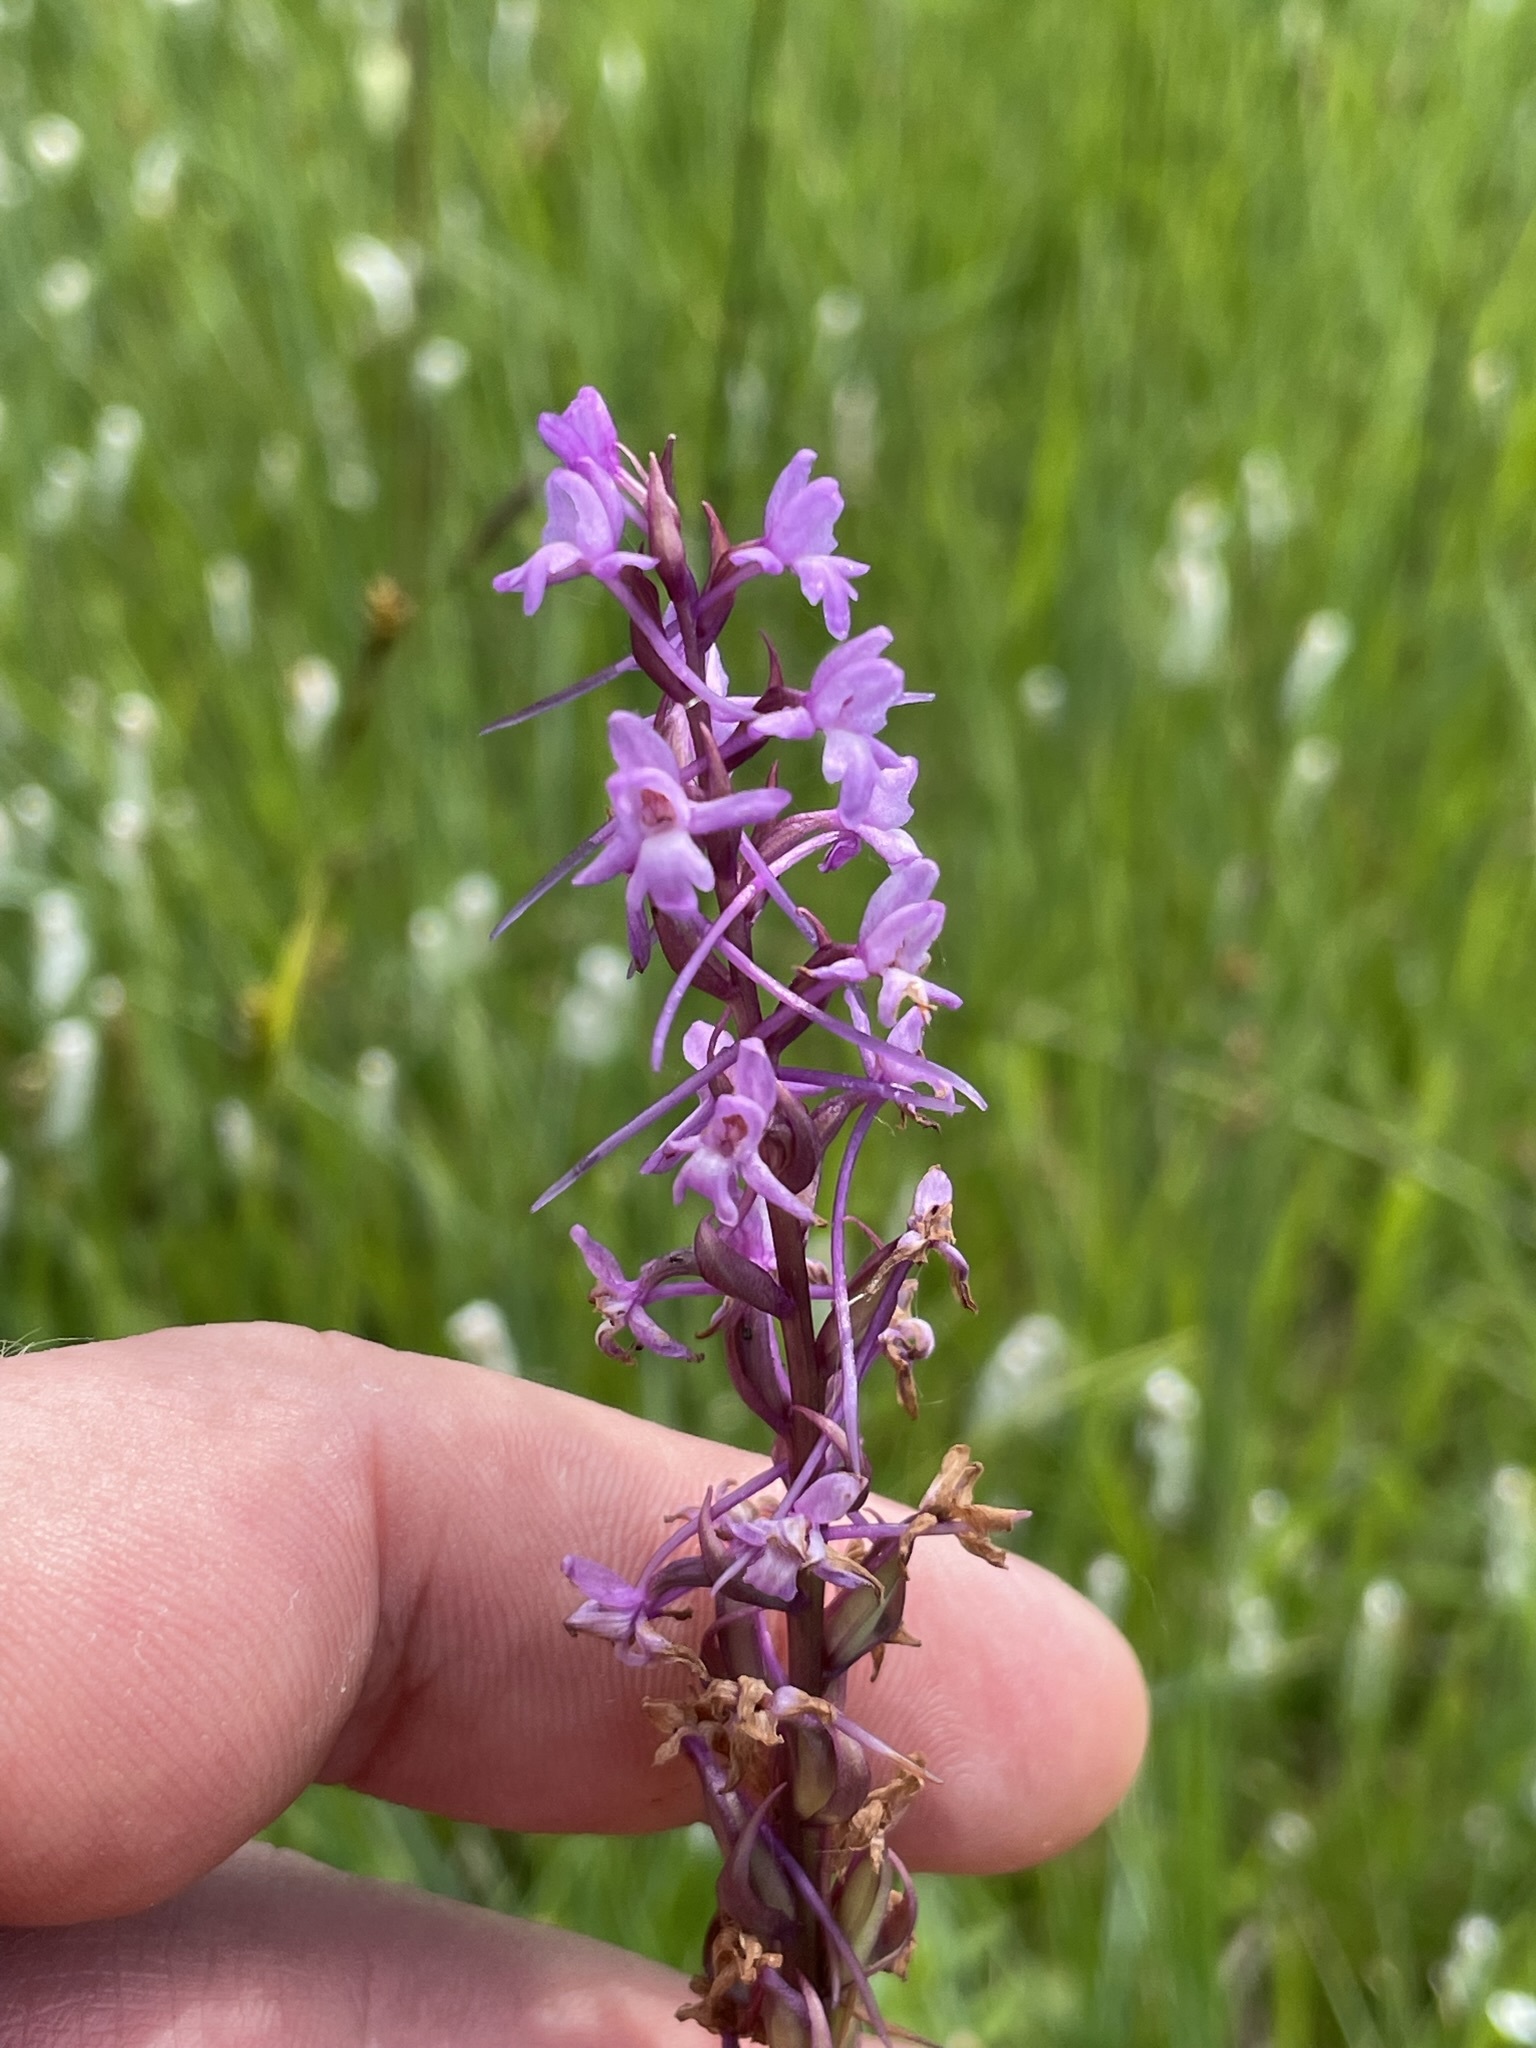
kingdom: Plantae
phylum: Tracheophyta
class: Liliopsida
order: Asparagales
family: Orchidaceae
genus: Gymnadenia
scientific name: Gymnadenia conopsea
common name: Fragrant orchid
